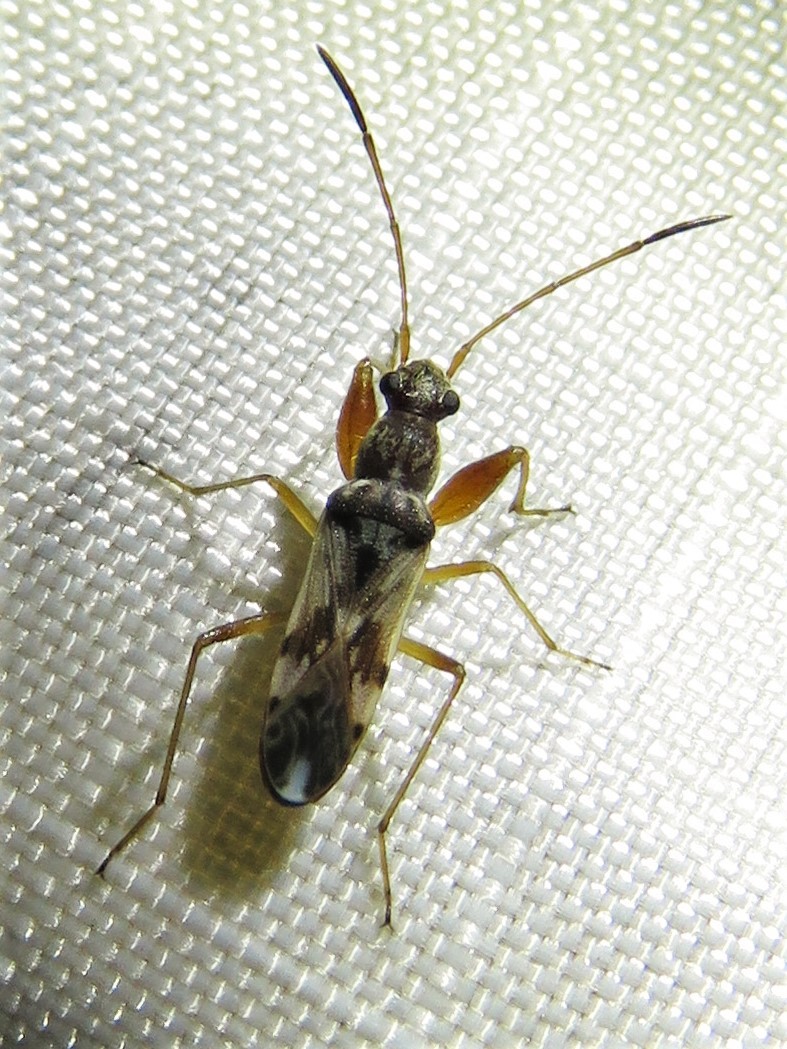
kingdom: Animalia
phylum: Arthropoda
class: Insecta
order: Hemiptera
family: Rhyparochromidae
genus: Neopamera
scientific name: Neopamera bilobata
